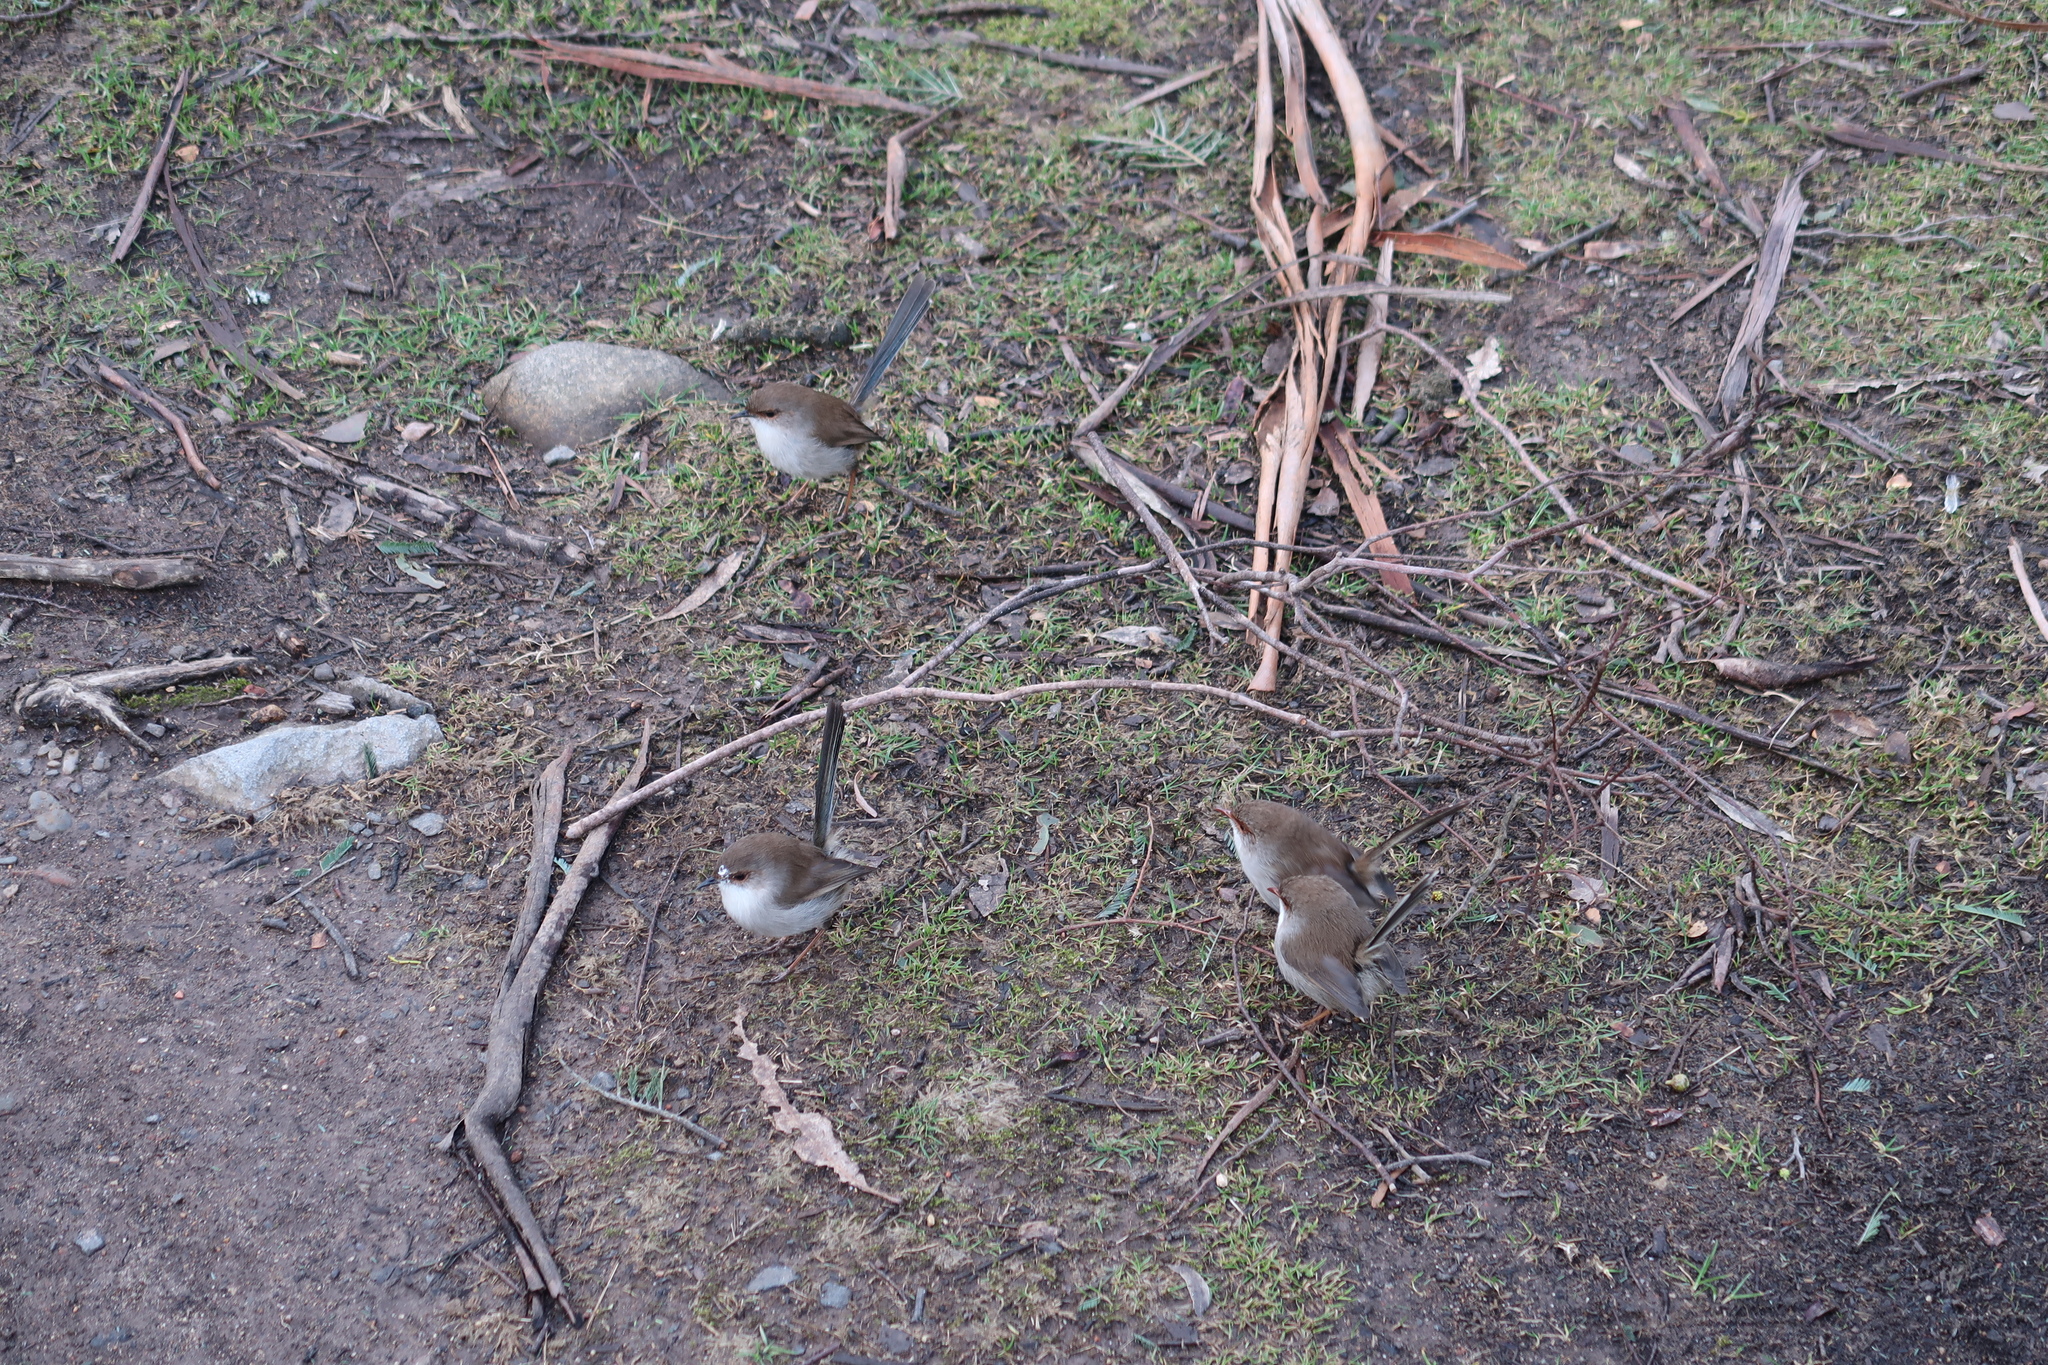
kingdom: Animalia
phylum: Chordata
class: Aves
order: Passeriformes
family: Maluridae
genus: Malurus
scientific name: Malurus cyaneus
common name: Superb fairywren
